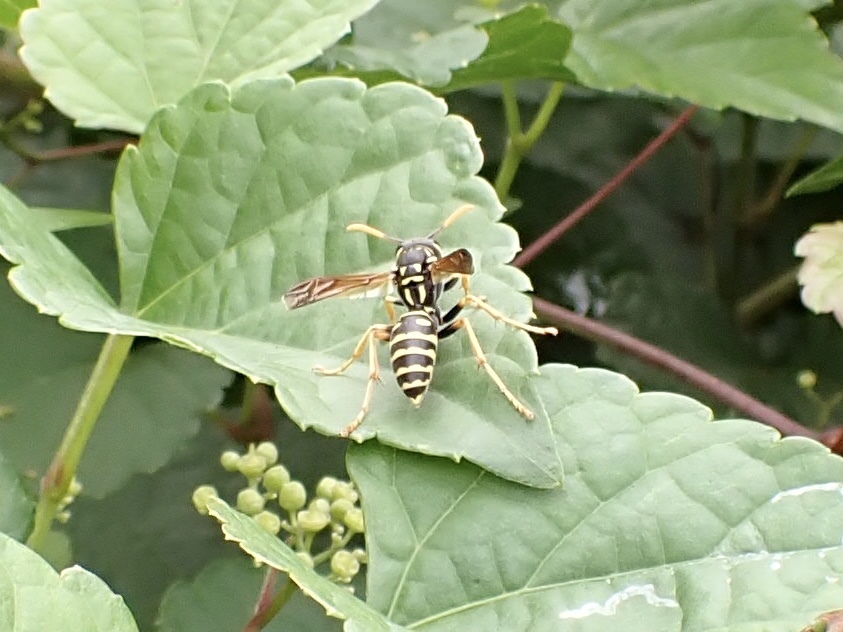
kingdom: Animalia
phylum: Arthropoda
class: Insecta
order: Hymenoptera
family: Eumenidae
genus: Polistes
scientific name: Polistes dominula
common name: Paper wasp
